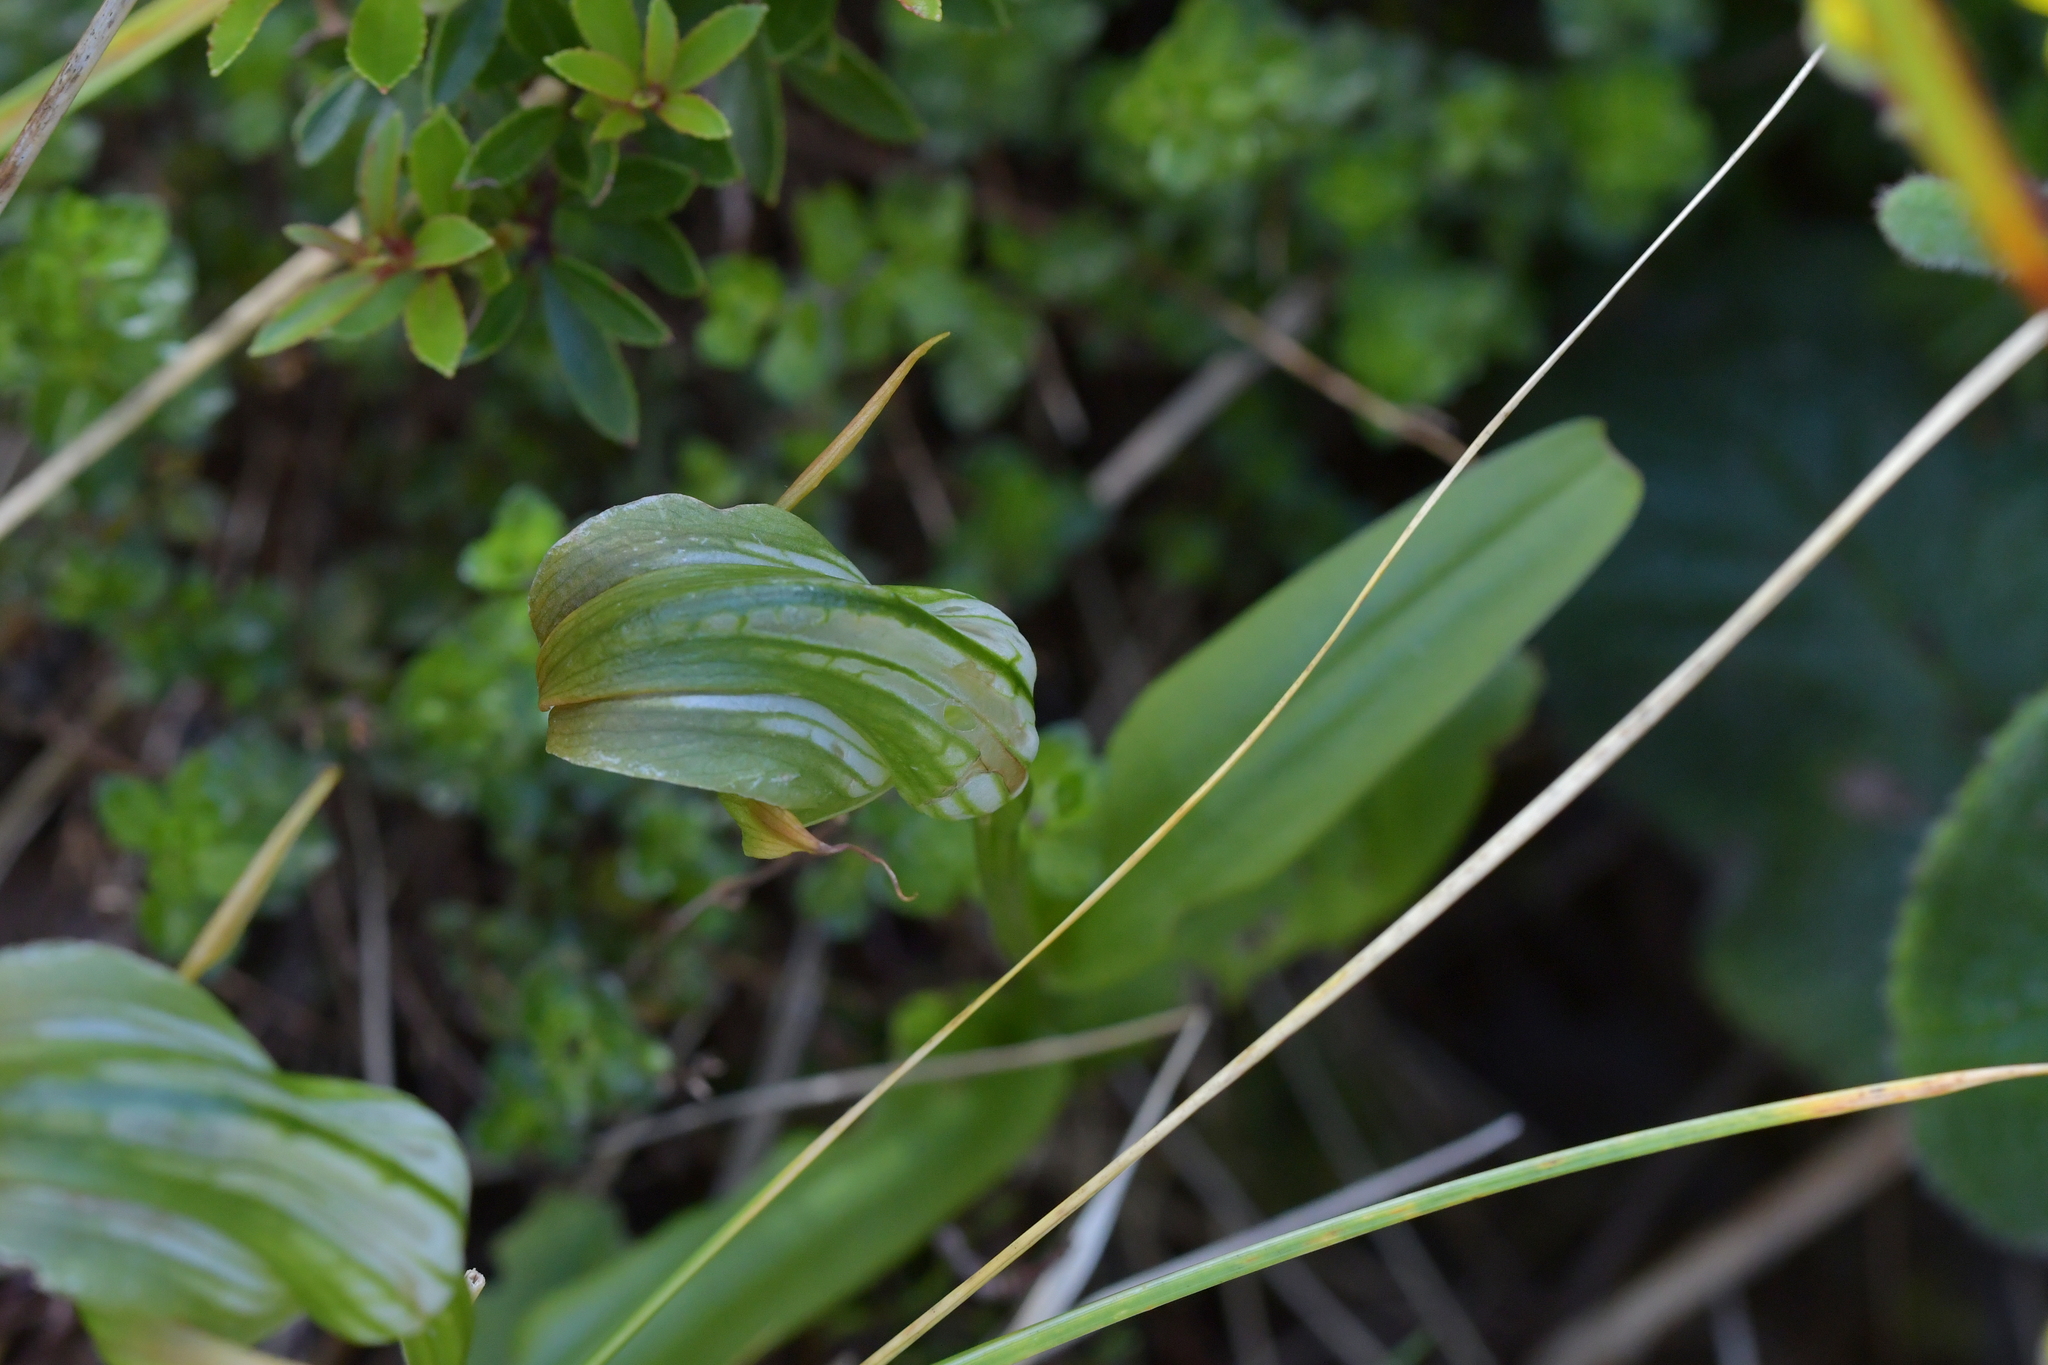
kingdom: Plantae
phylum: Tracheophyta
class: Liliopsida
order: Asparagales
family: Orchidaceae
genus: Pterostylis
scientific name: Pterostylis patens
